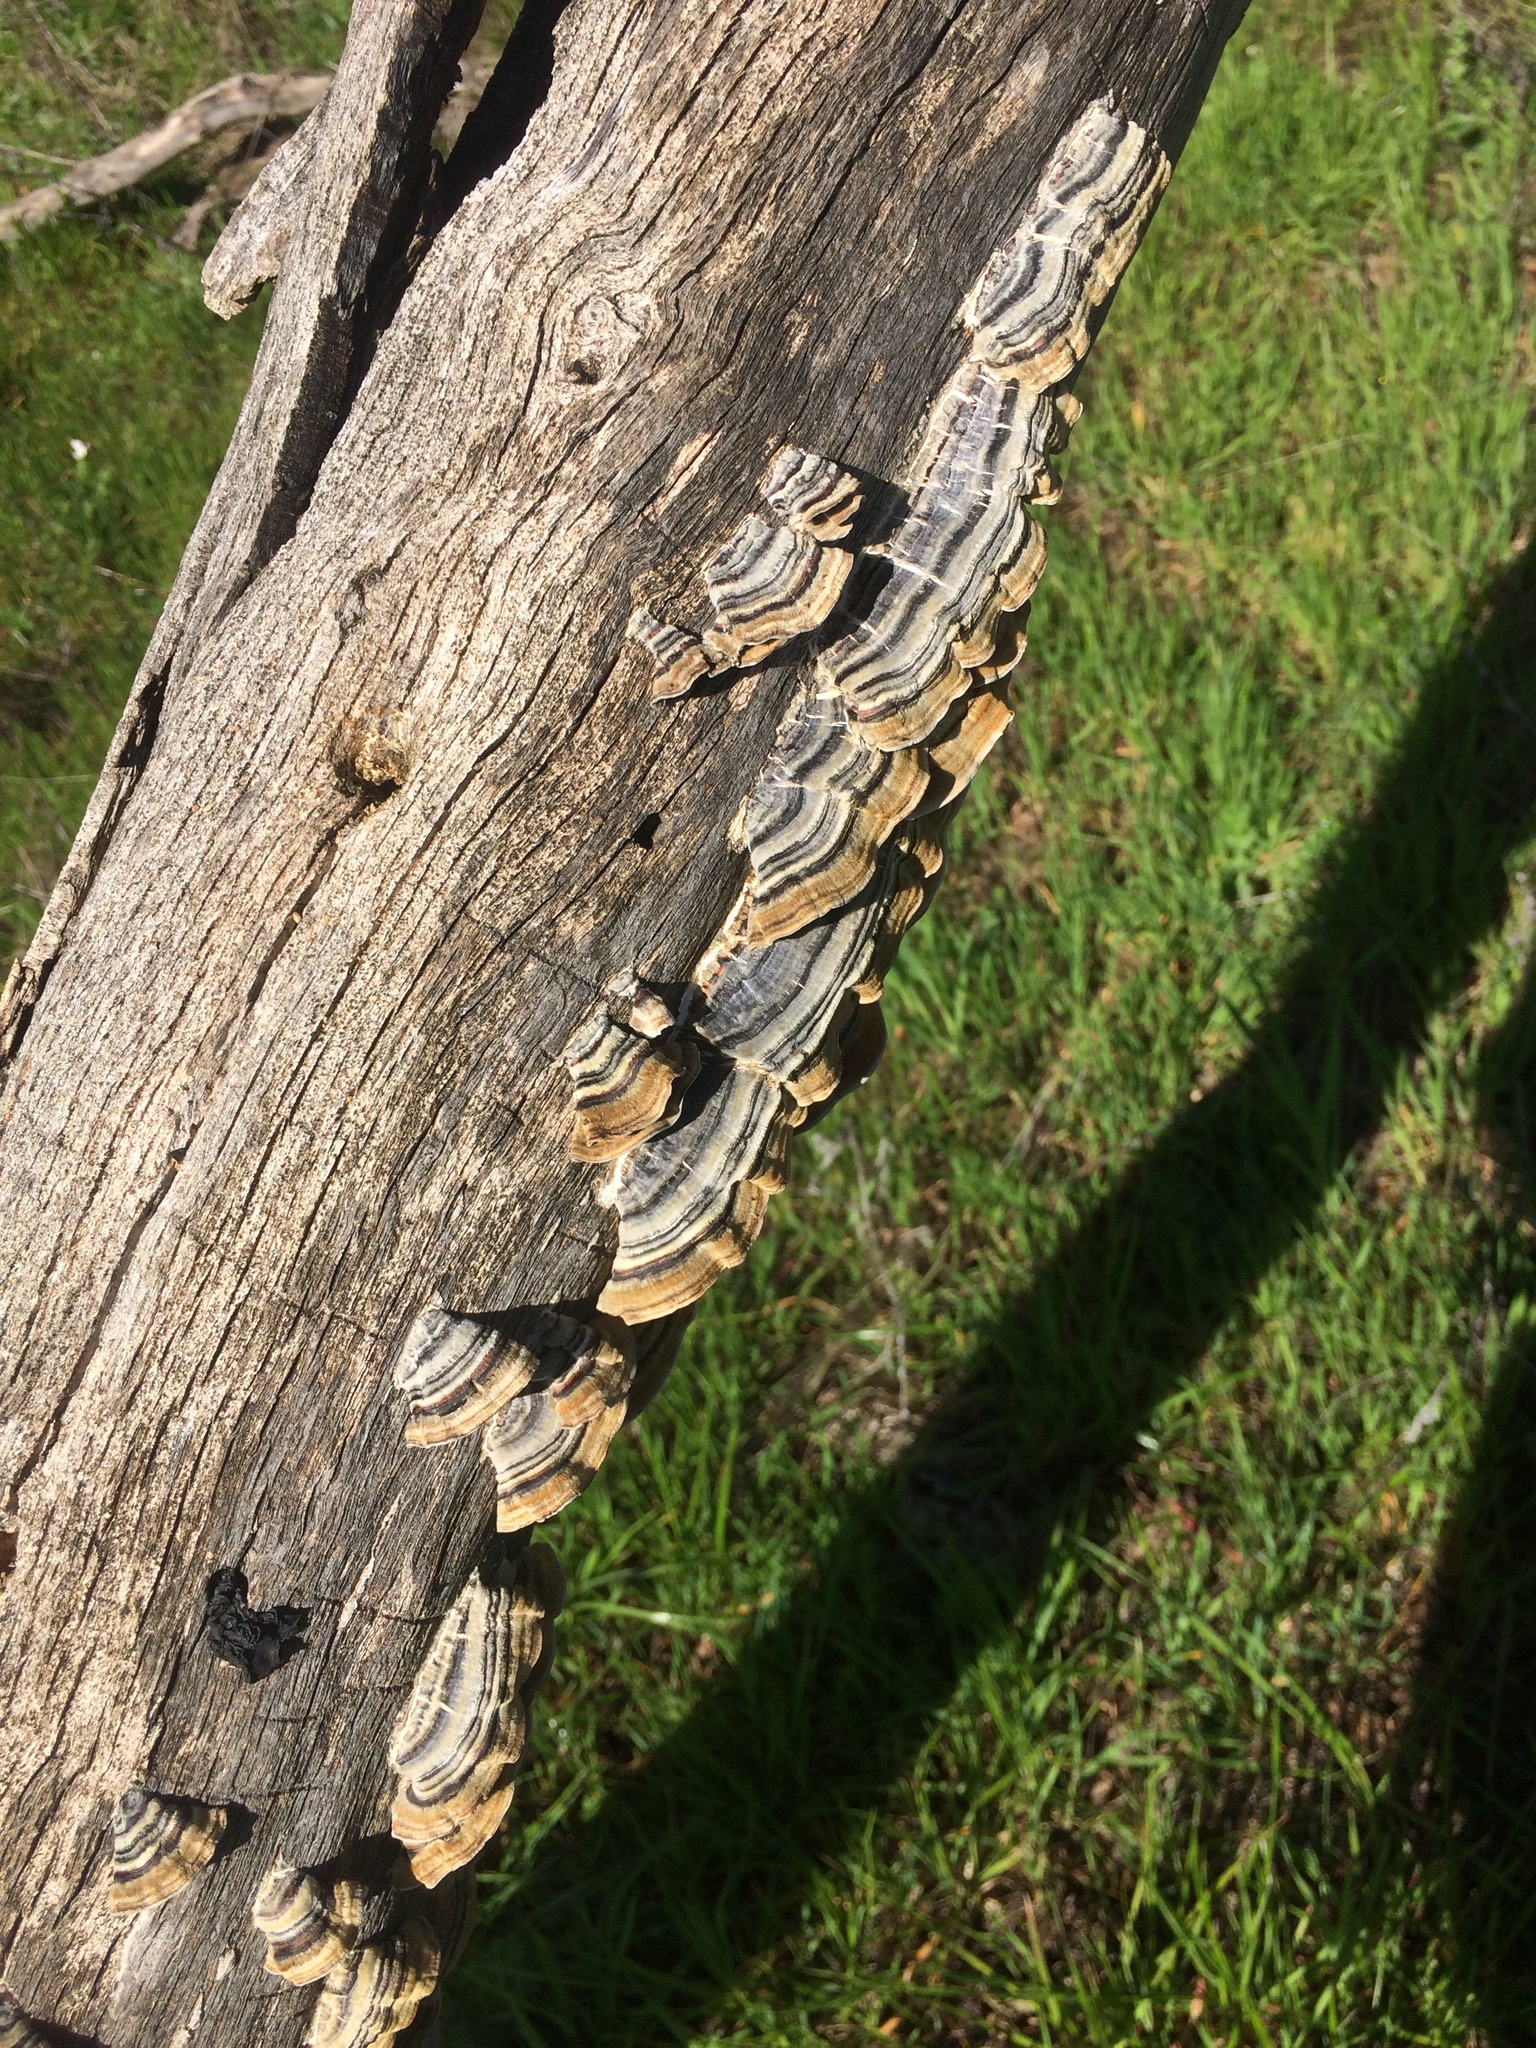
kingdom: Fungi
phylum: Basidiomycota
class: Agaricomycetes
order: Polyporales
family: Polyporaceae
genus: Trametes
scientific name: Trametes versicolor
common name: Turkeytail
